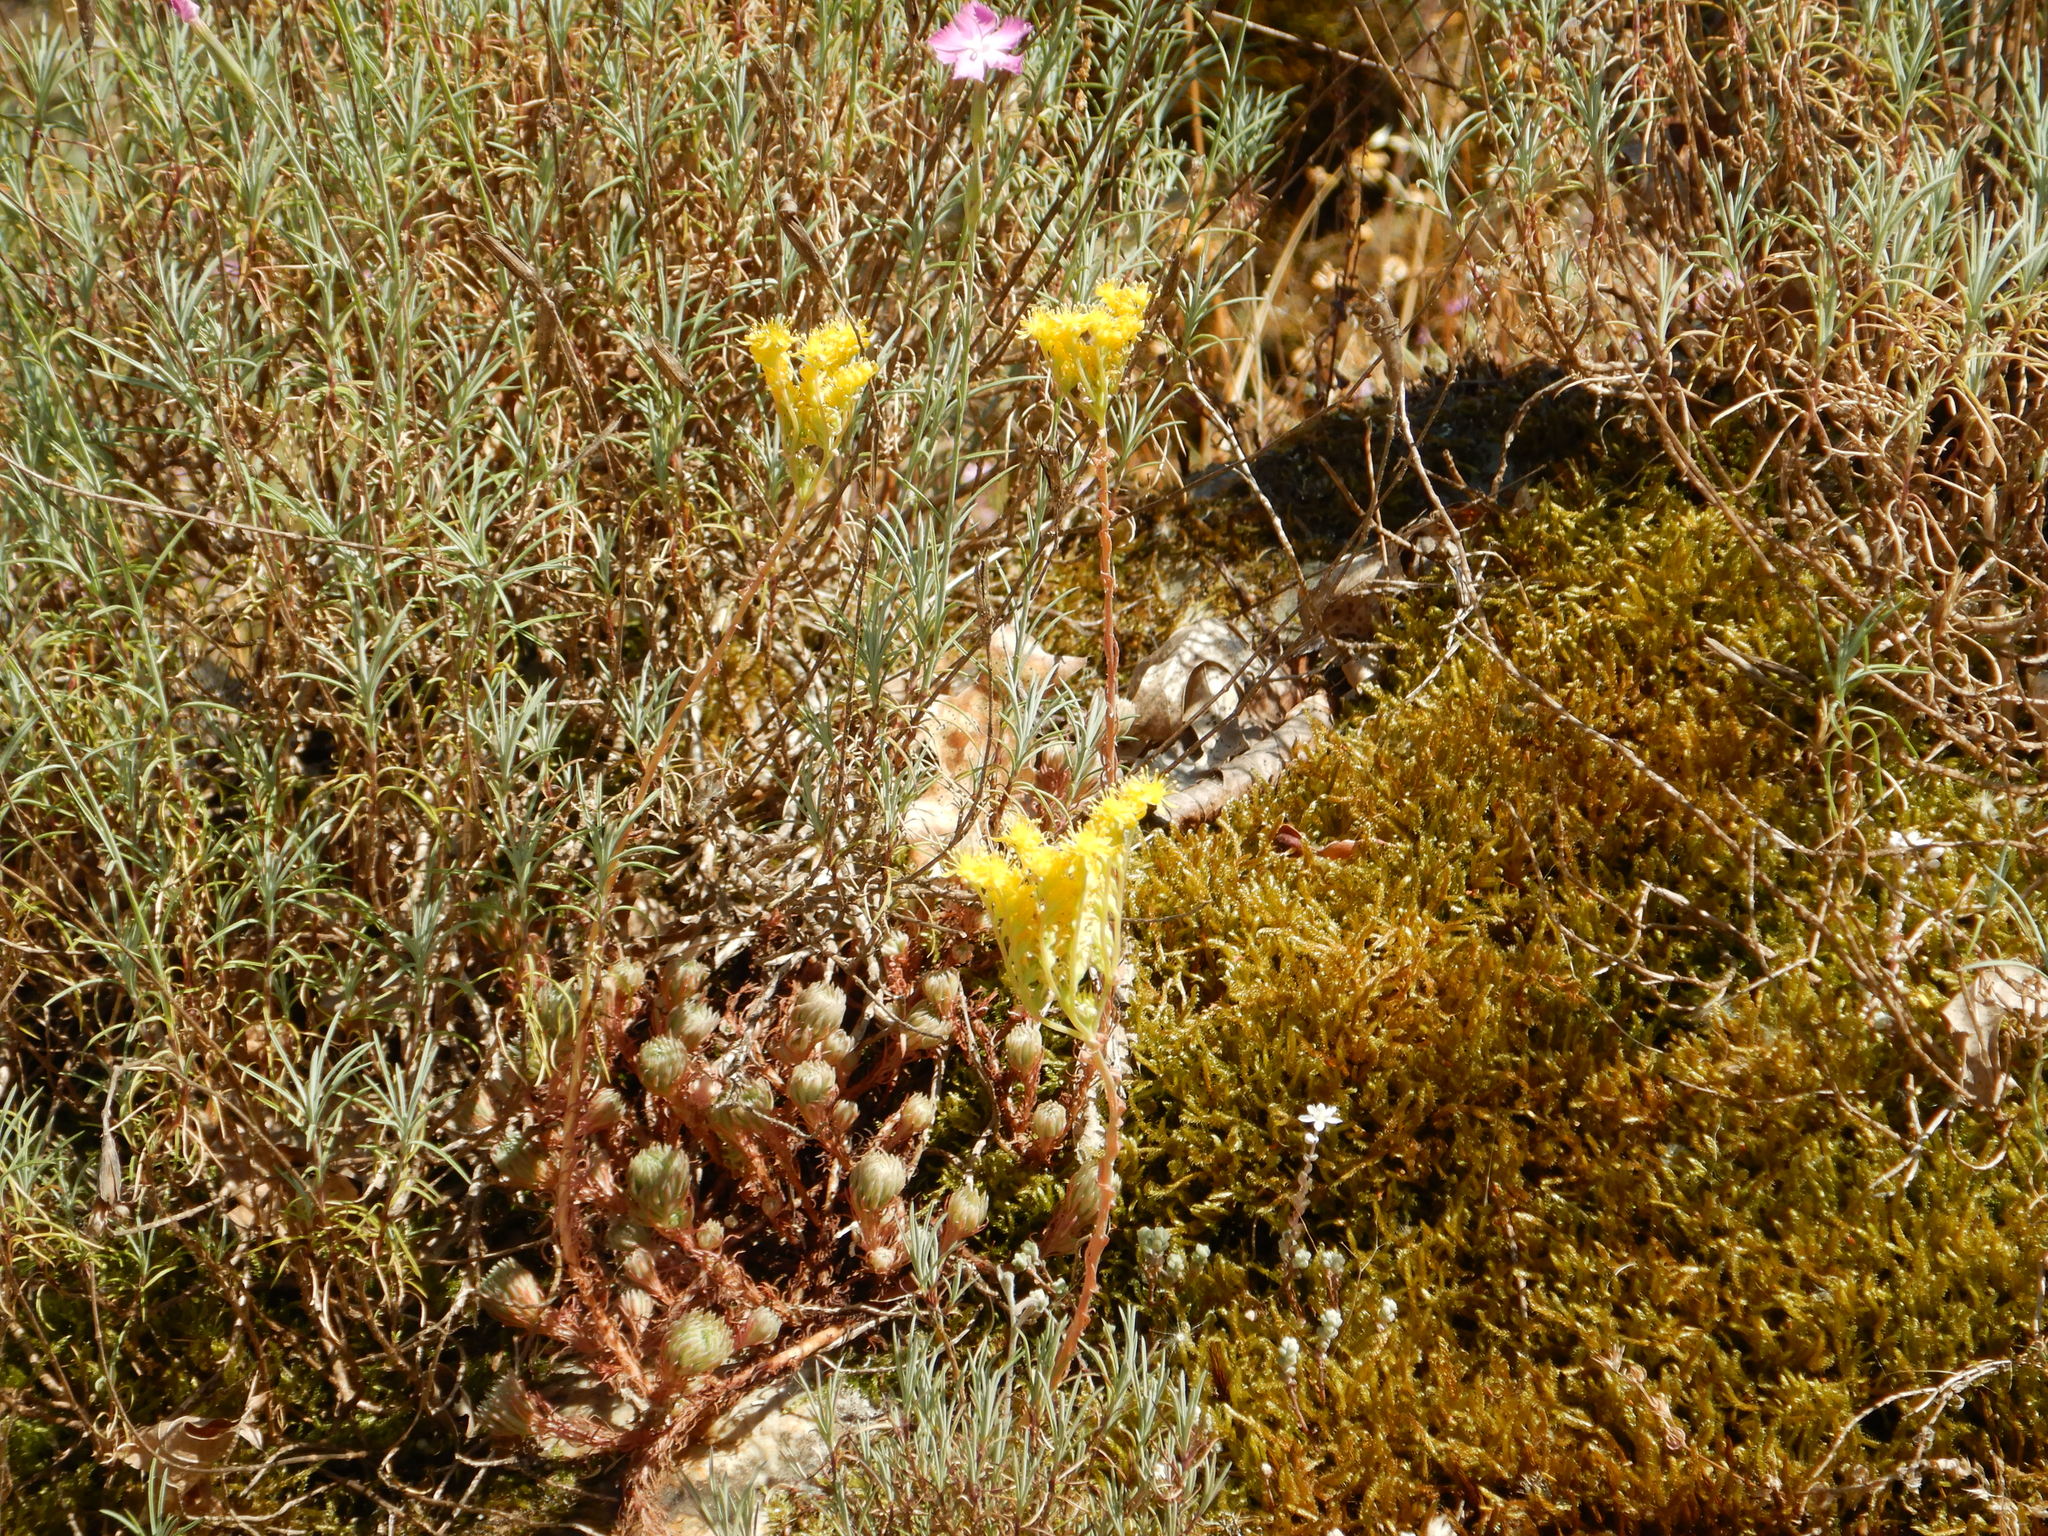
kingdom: Plantae
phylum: Tracheophyta
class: Magnoliopsida
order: Saxifragales
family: Crassulaceae
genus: Petrosedum
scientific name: Petrosedum forsterianum
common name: Forster's stonecrop
